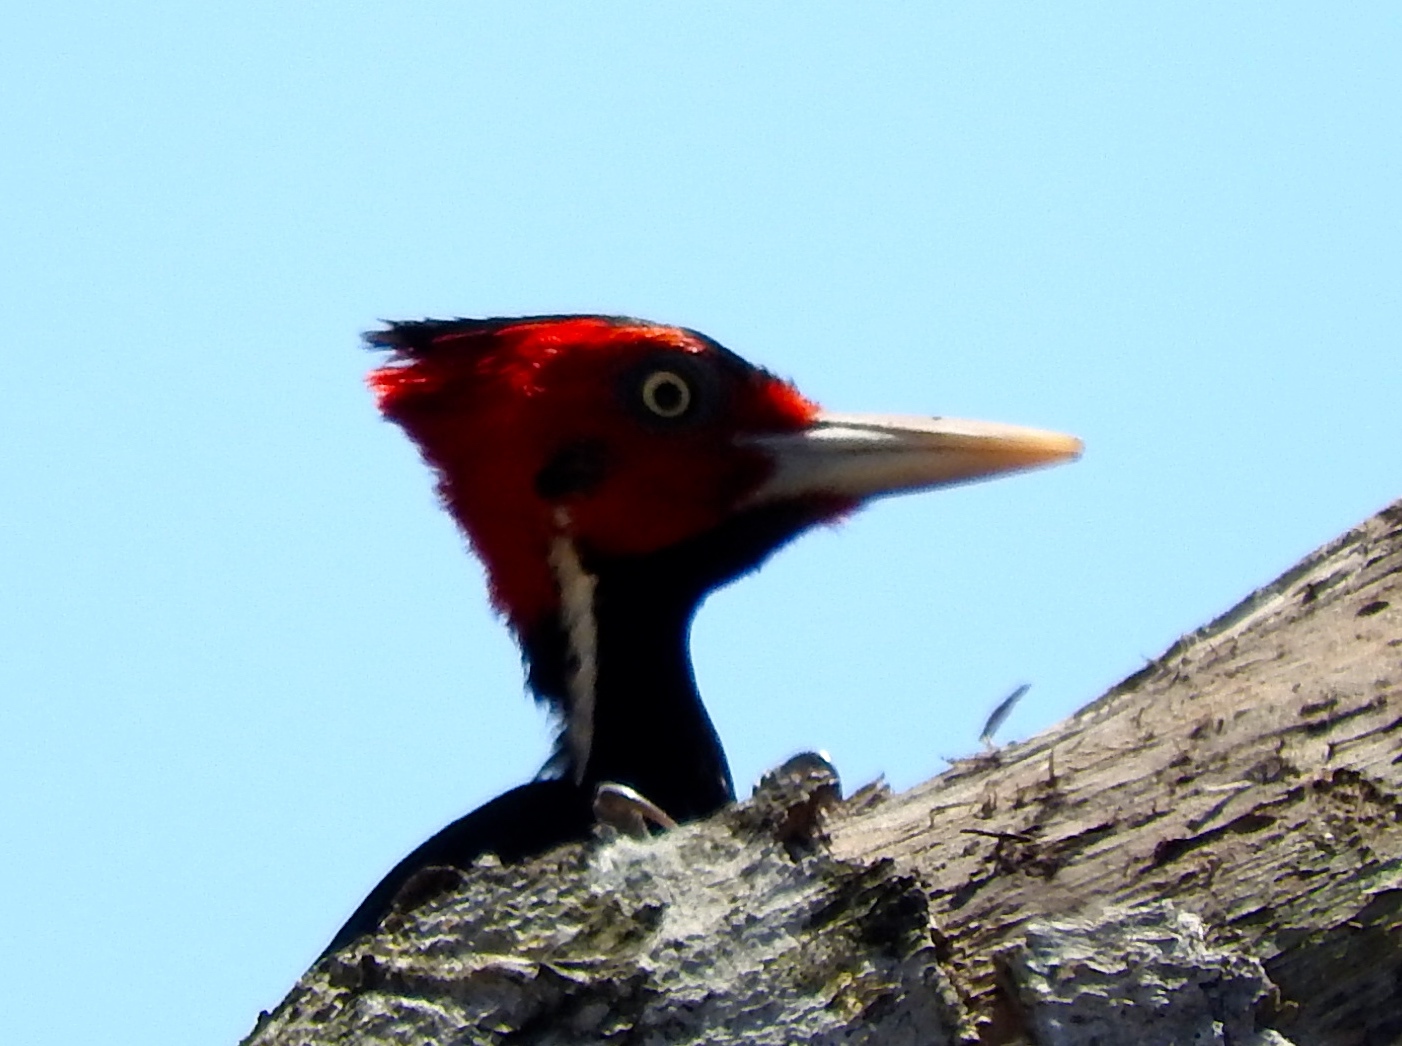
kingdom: Animalia
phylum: Chordata
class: Aves
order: Piciformes
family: Picidae
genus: Campephilus
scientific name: Campephilus guatemalensis
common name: Pale-billed woodpecker
